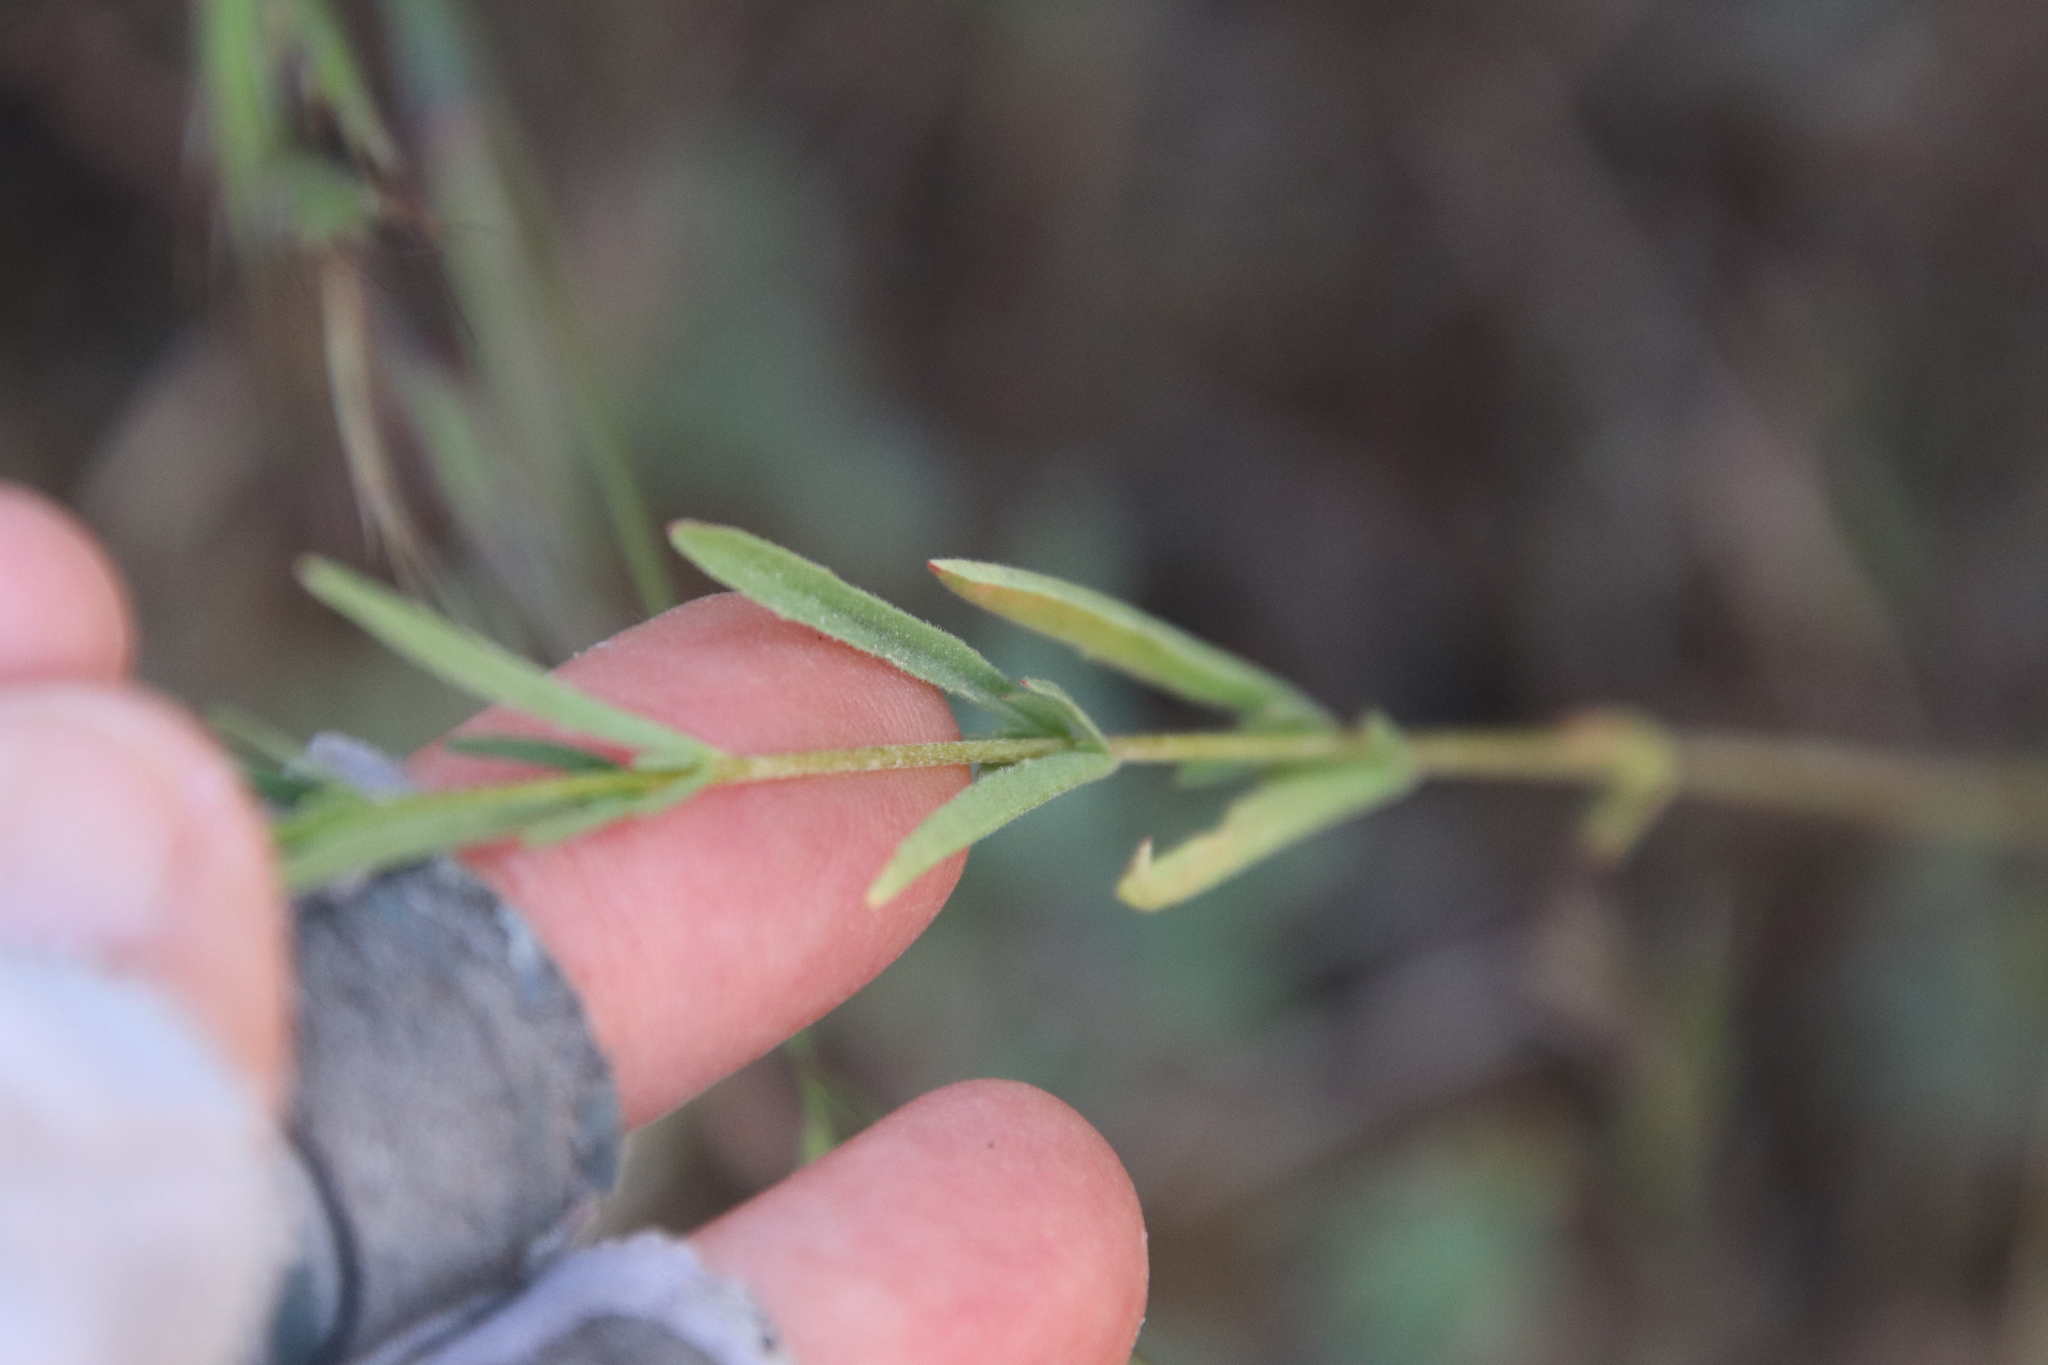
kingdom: Plantae
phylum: Tracheophyta
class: Magnoliopsida
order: Myrtales
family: Onagraceae
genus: Clarkia
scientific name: Clarkia purpurea
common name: Purple clarkia
